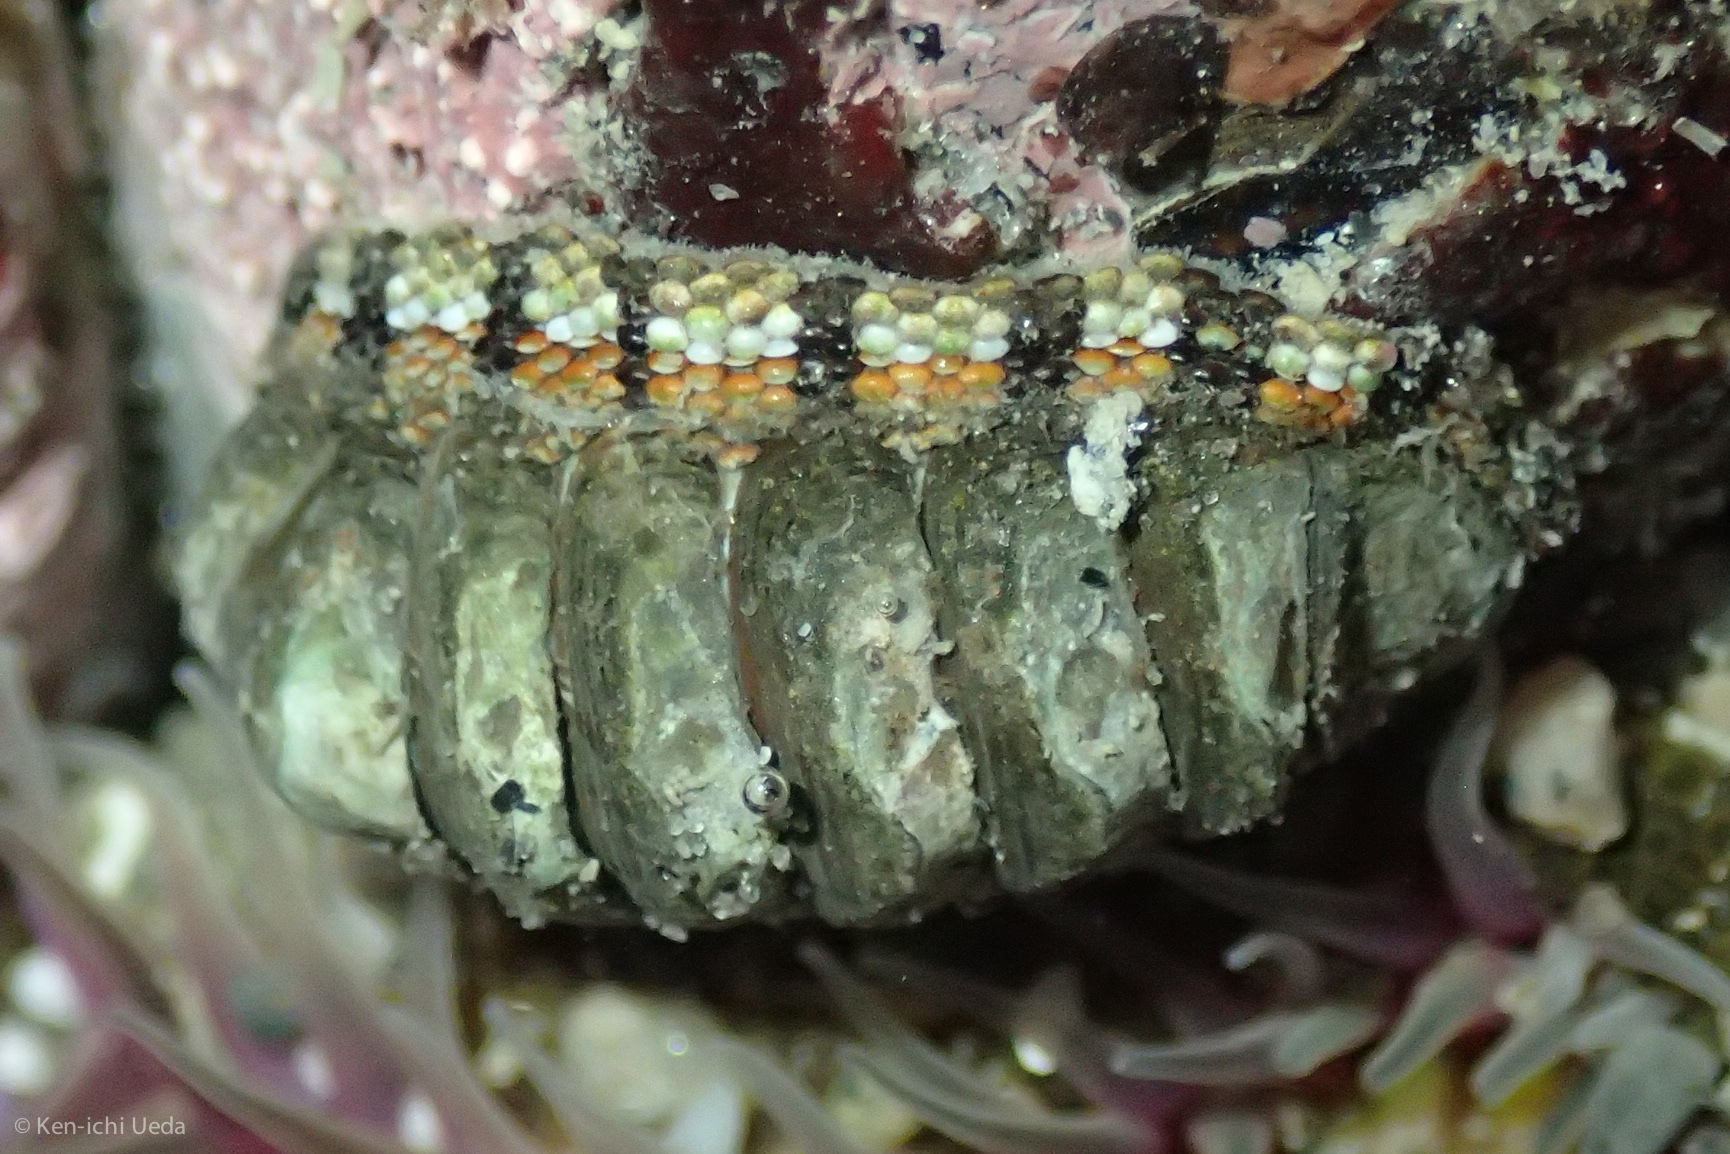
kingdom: Animalia
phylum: Mollusca
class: Polyplacophora
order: Chitonida
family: Chitonidae
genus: Sypharochiton
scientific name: Sypharochiton pelliserpentis
